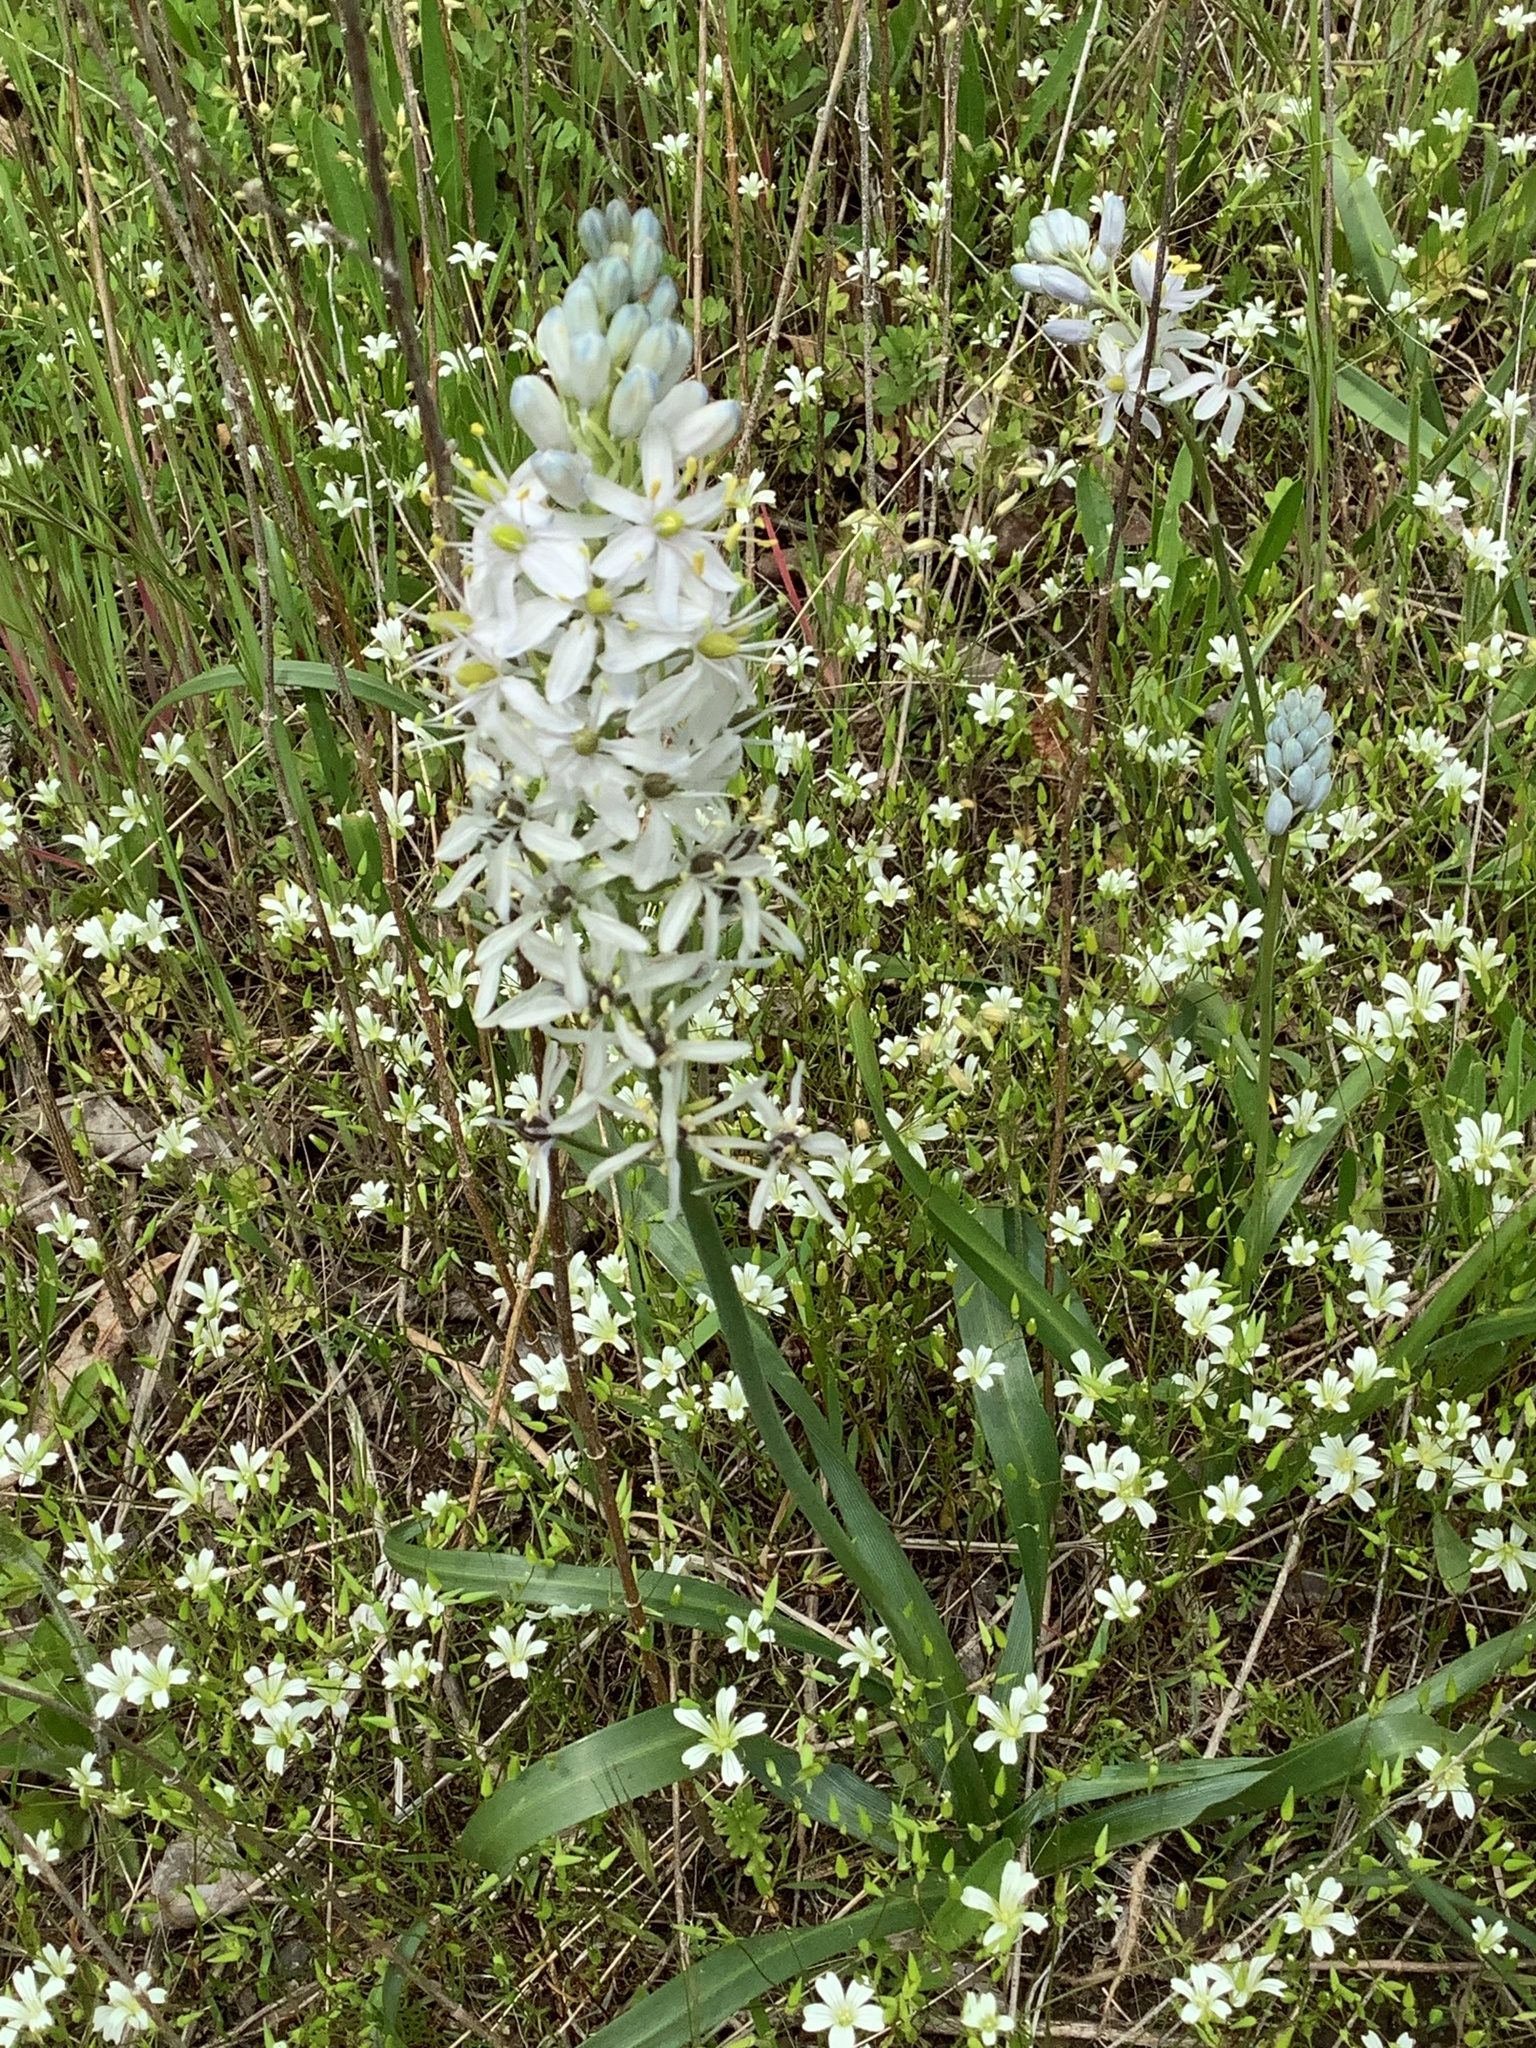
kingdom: Plantae
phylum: Tracheophyta
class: Liliopsida
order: Asparagales
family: Asparagaceae
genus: Camassia
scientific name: Camassia scilloides
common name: Wild hyacinth
